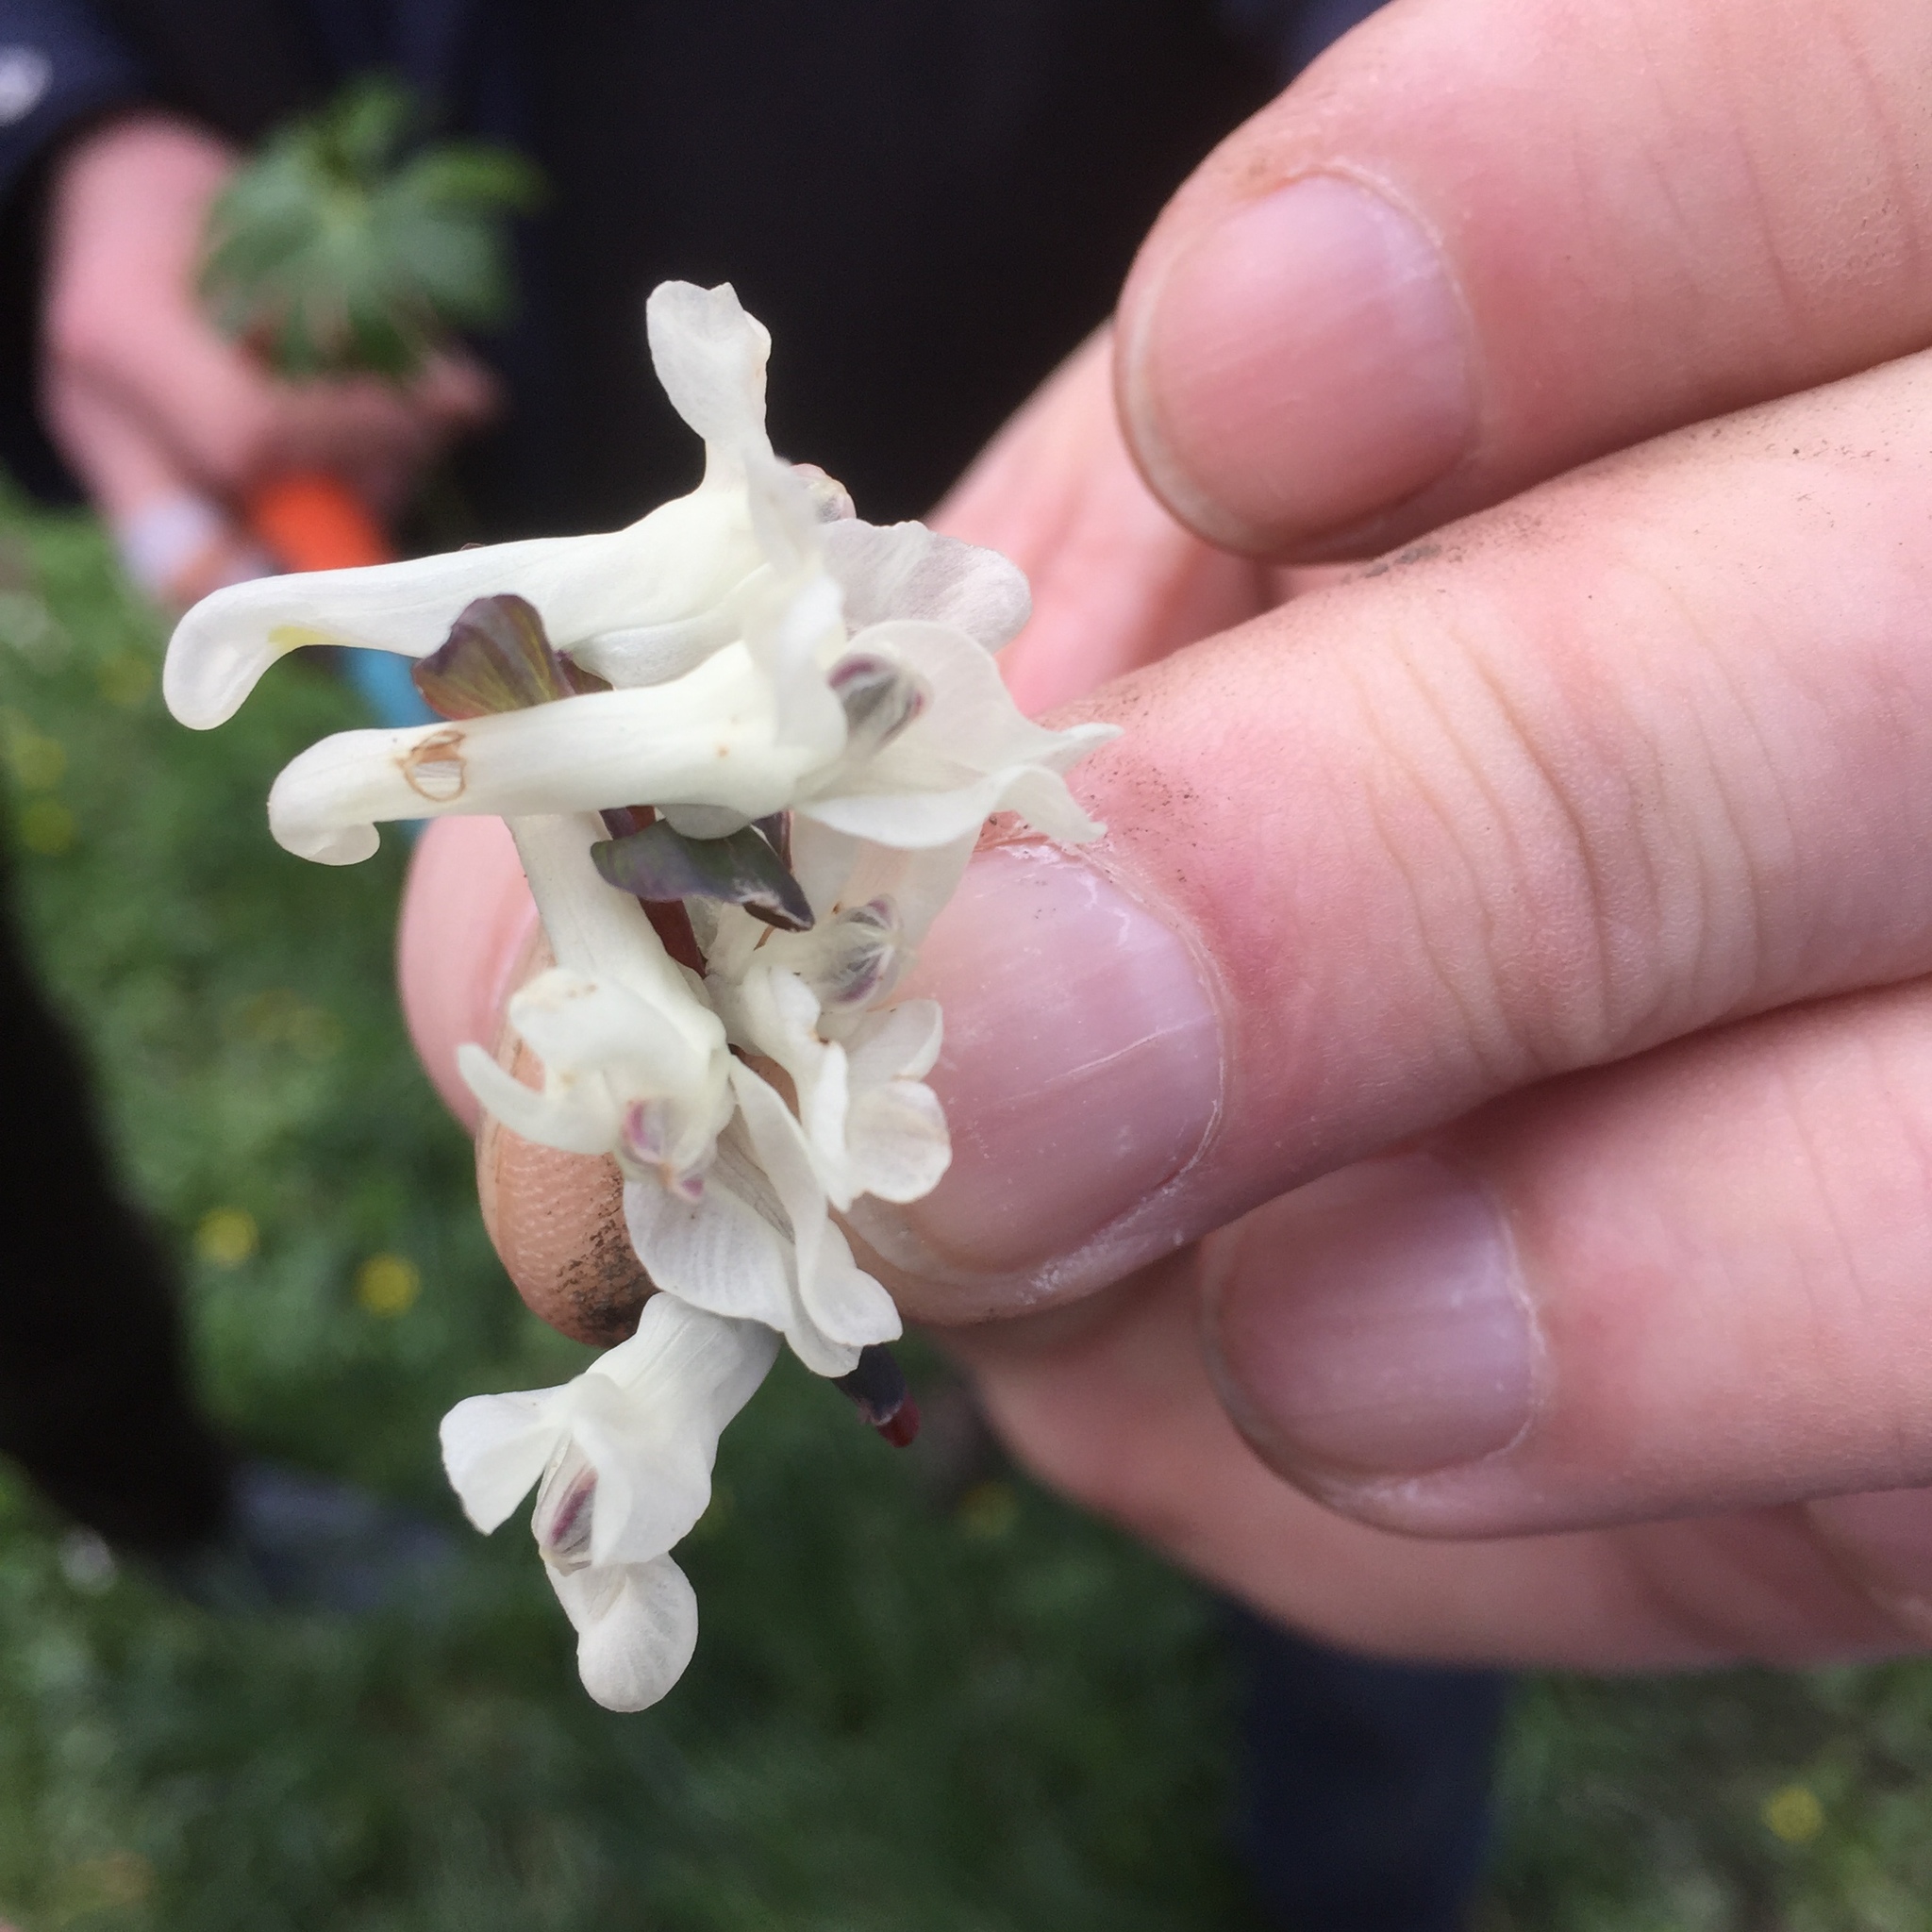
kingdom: Plantae
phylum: Tracheophyta
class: Magnoliopsida
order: Ranunculales
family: Papaveraceae
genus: Corydalis
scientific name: Corydalis cava
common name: Hollowroot
